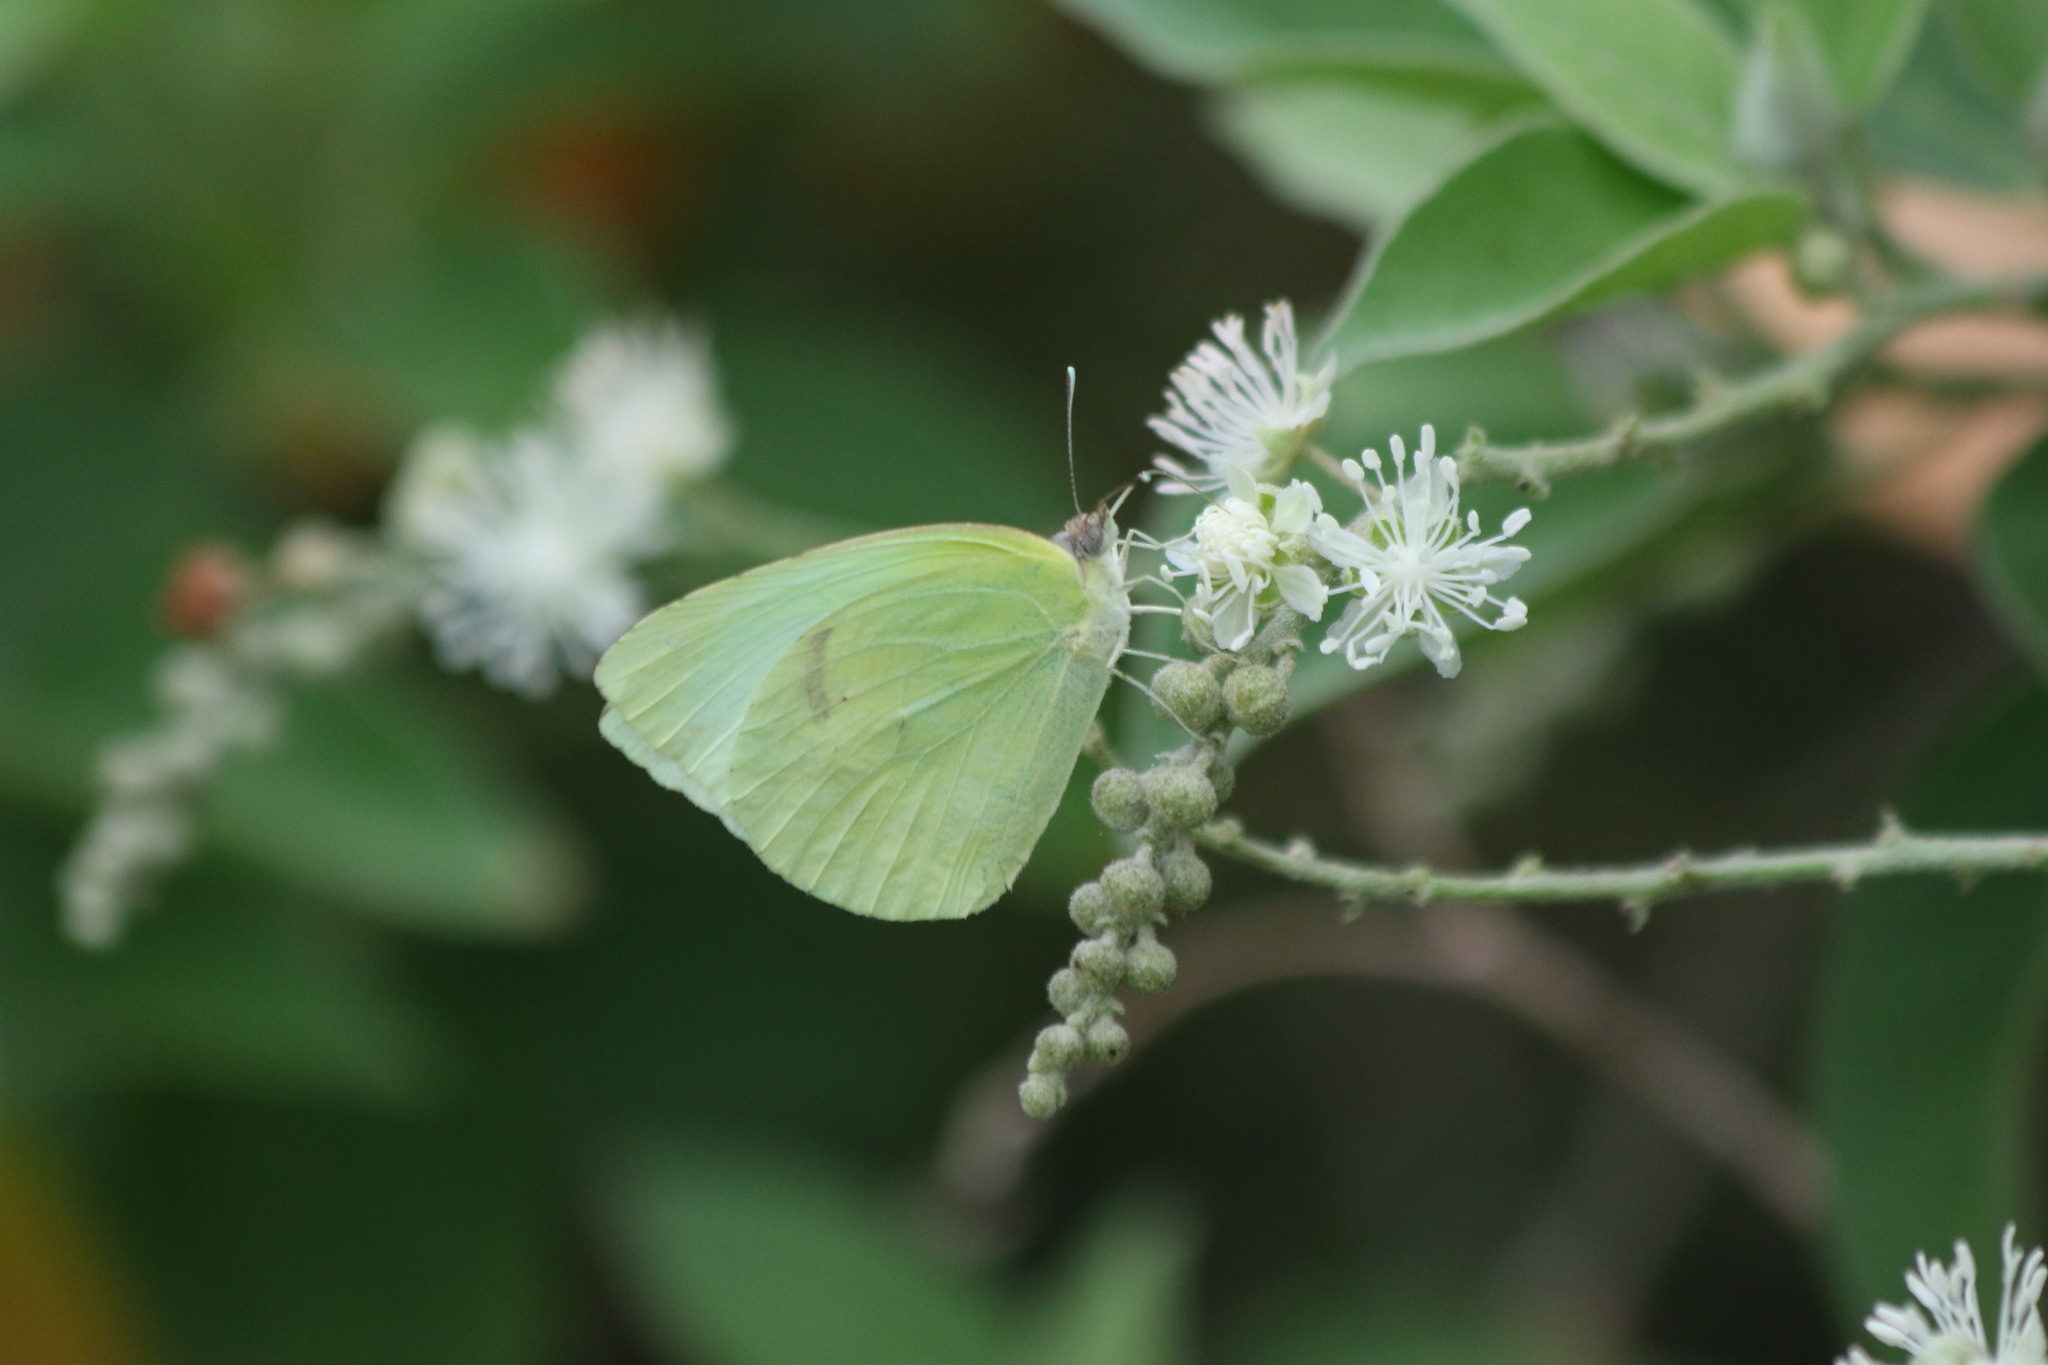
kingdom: Animalia
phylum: Arthropoda
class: Insecta
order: Lepidoptera
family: Pieridae
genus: Kricogonia
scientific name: Kricogonia lyside
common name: Guayacan sulphur,
